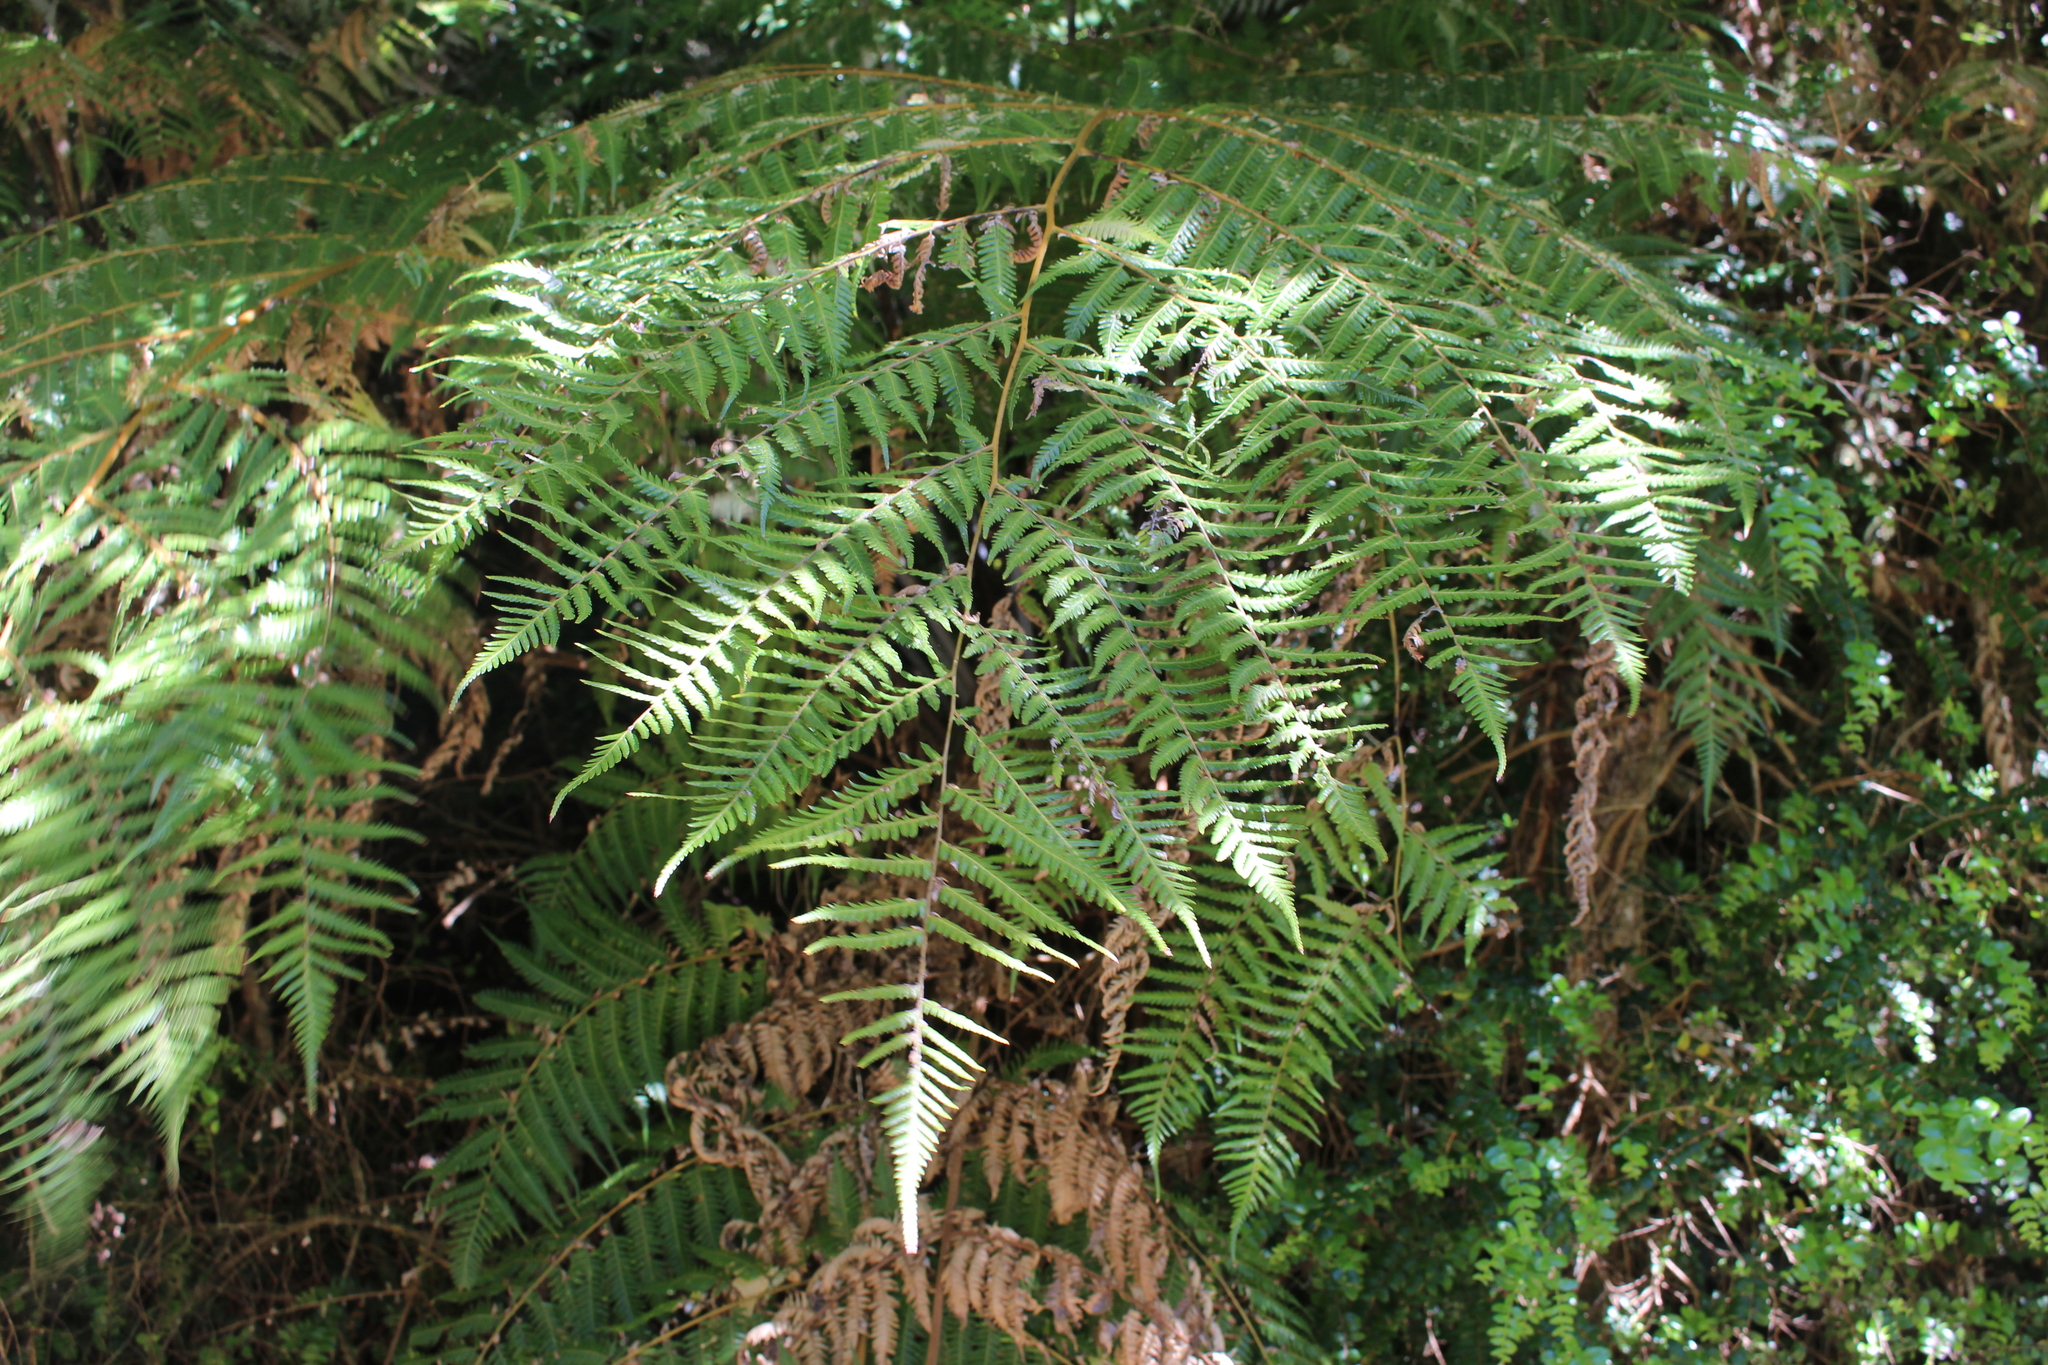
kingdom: Plantae
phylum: Tracheophyta
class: Polypodiopsida
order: Cyatheales
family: Cyatheaceae
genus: Alsophila
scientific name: Alsophila dealbata
